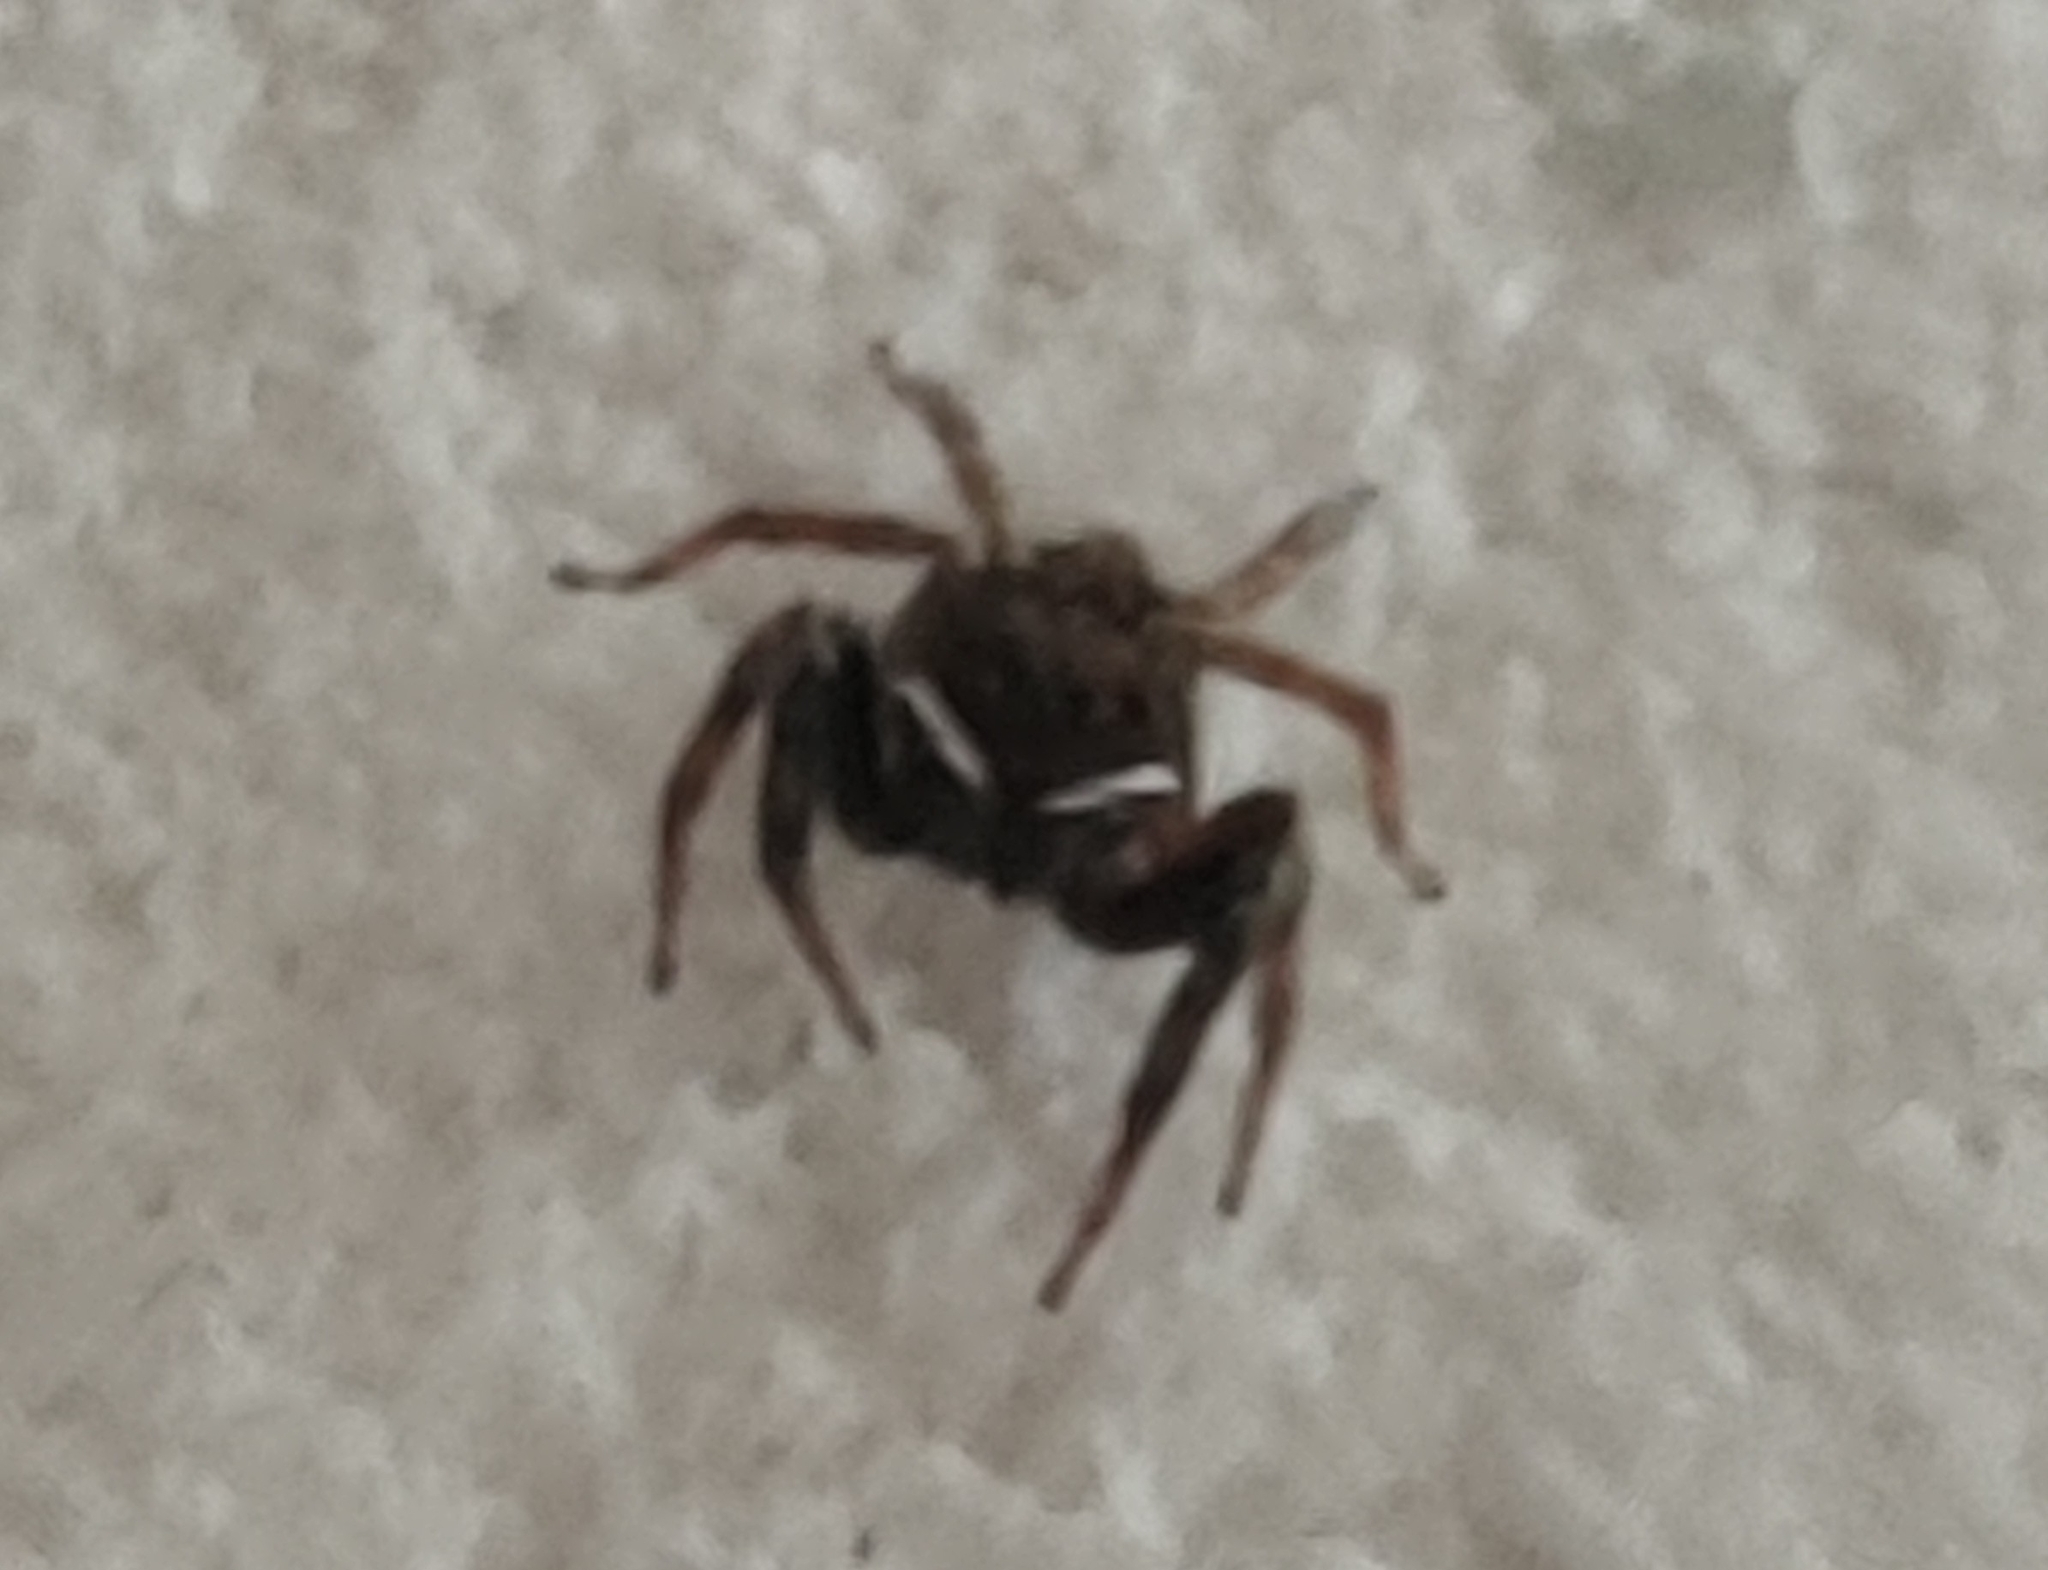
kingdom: Animalia
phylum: Arthropoda
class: Arachnida
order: Araneae
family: Salticidae
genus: Hasarius
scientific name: Hasarius adansoni
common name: Jumping spider
